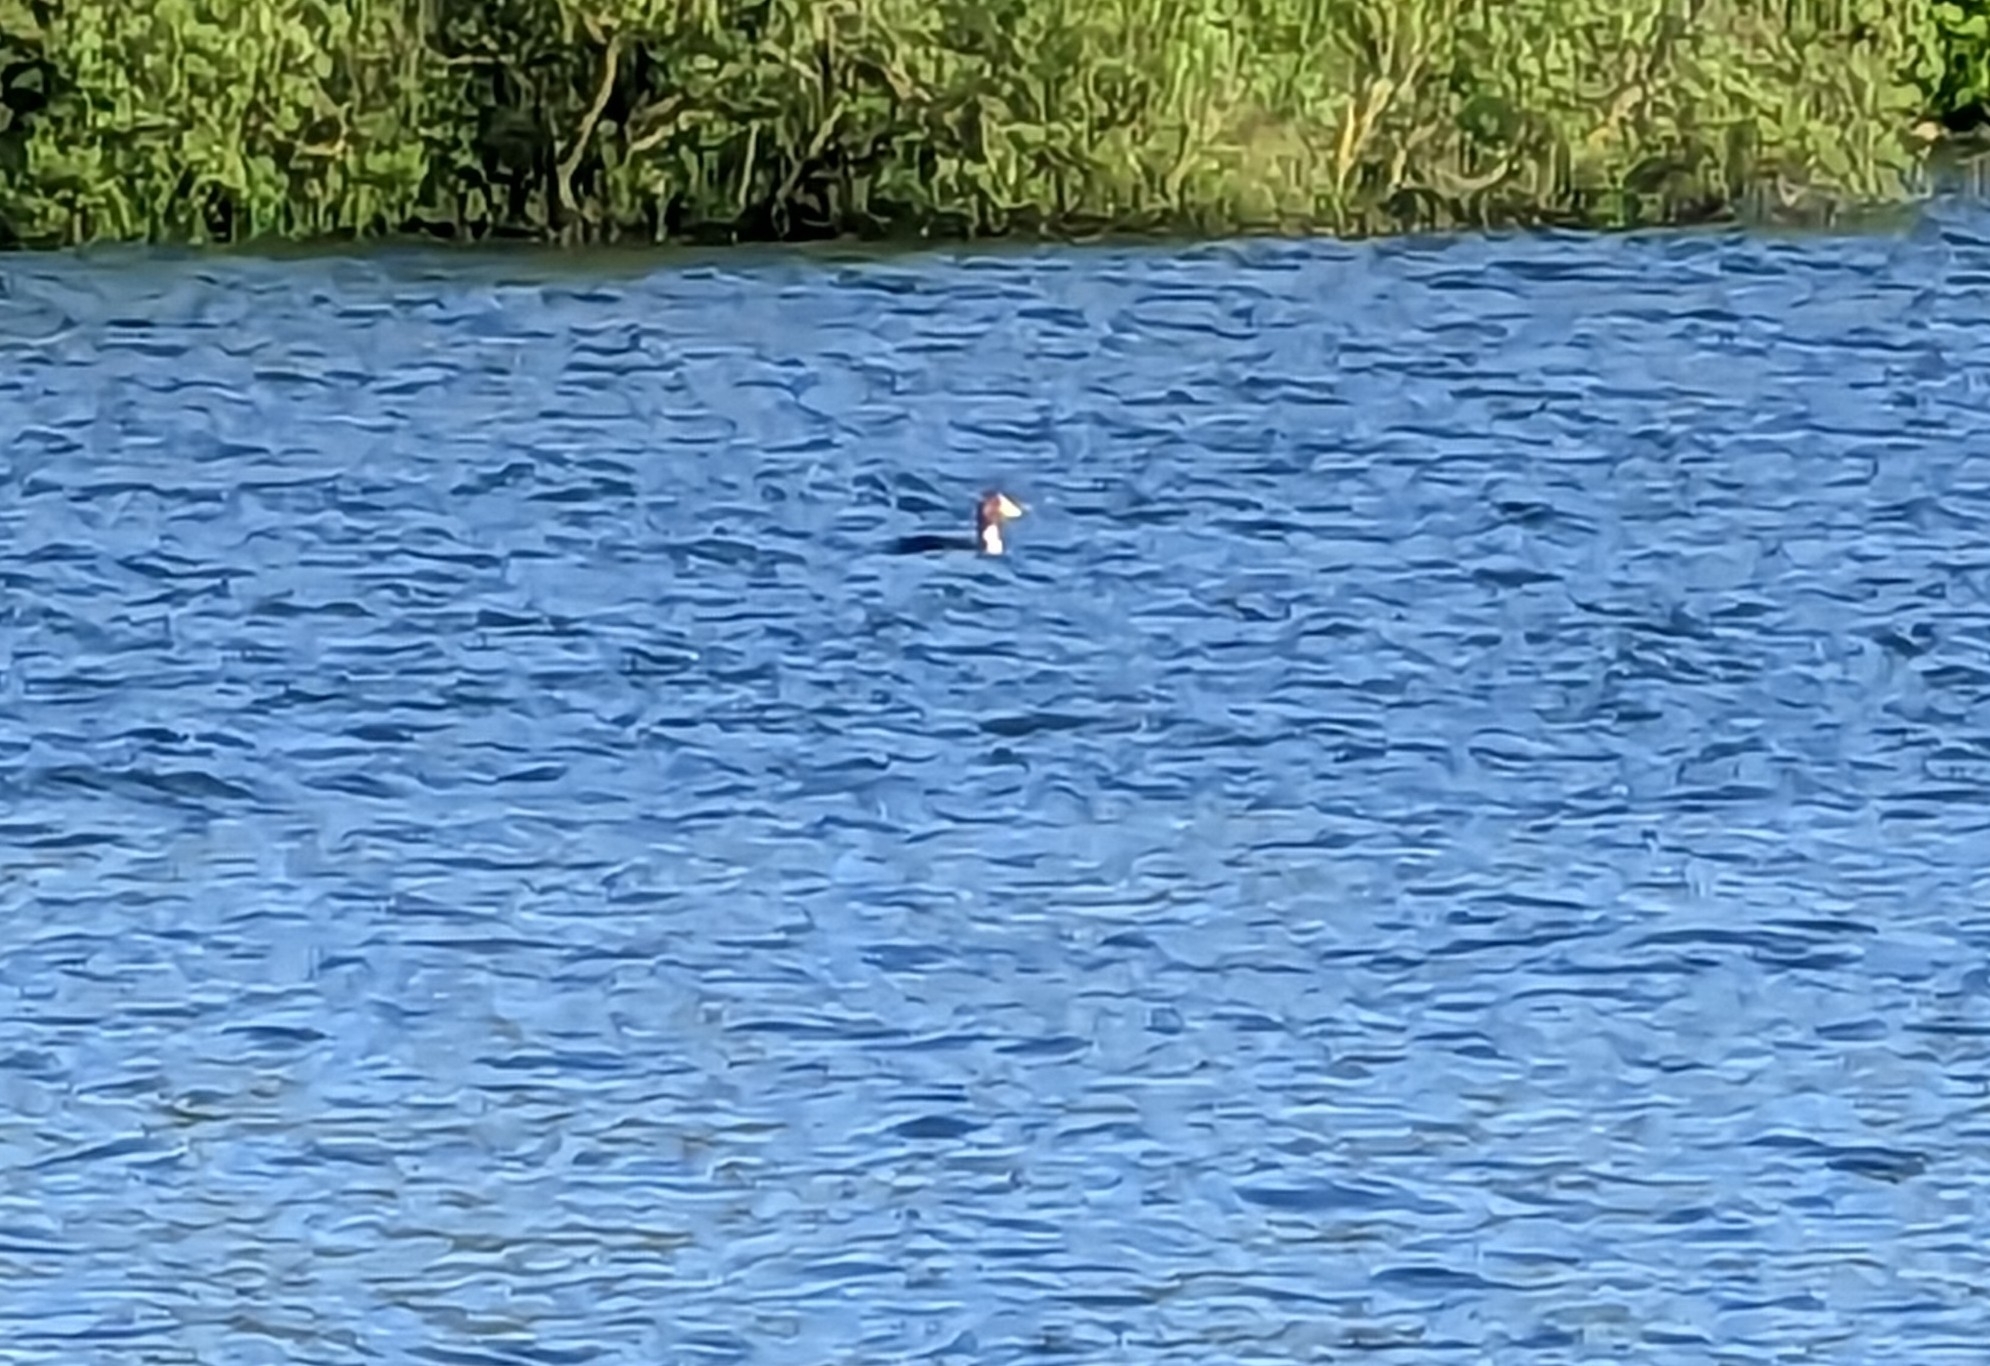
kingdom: Animalia
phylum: Chordata
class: Aves
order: Podicipediformes
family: Podicipedidae
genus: Podiceps
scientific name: Podiceps cristatus
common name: Great crested grebe
